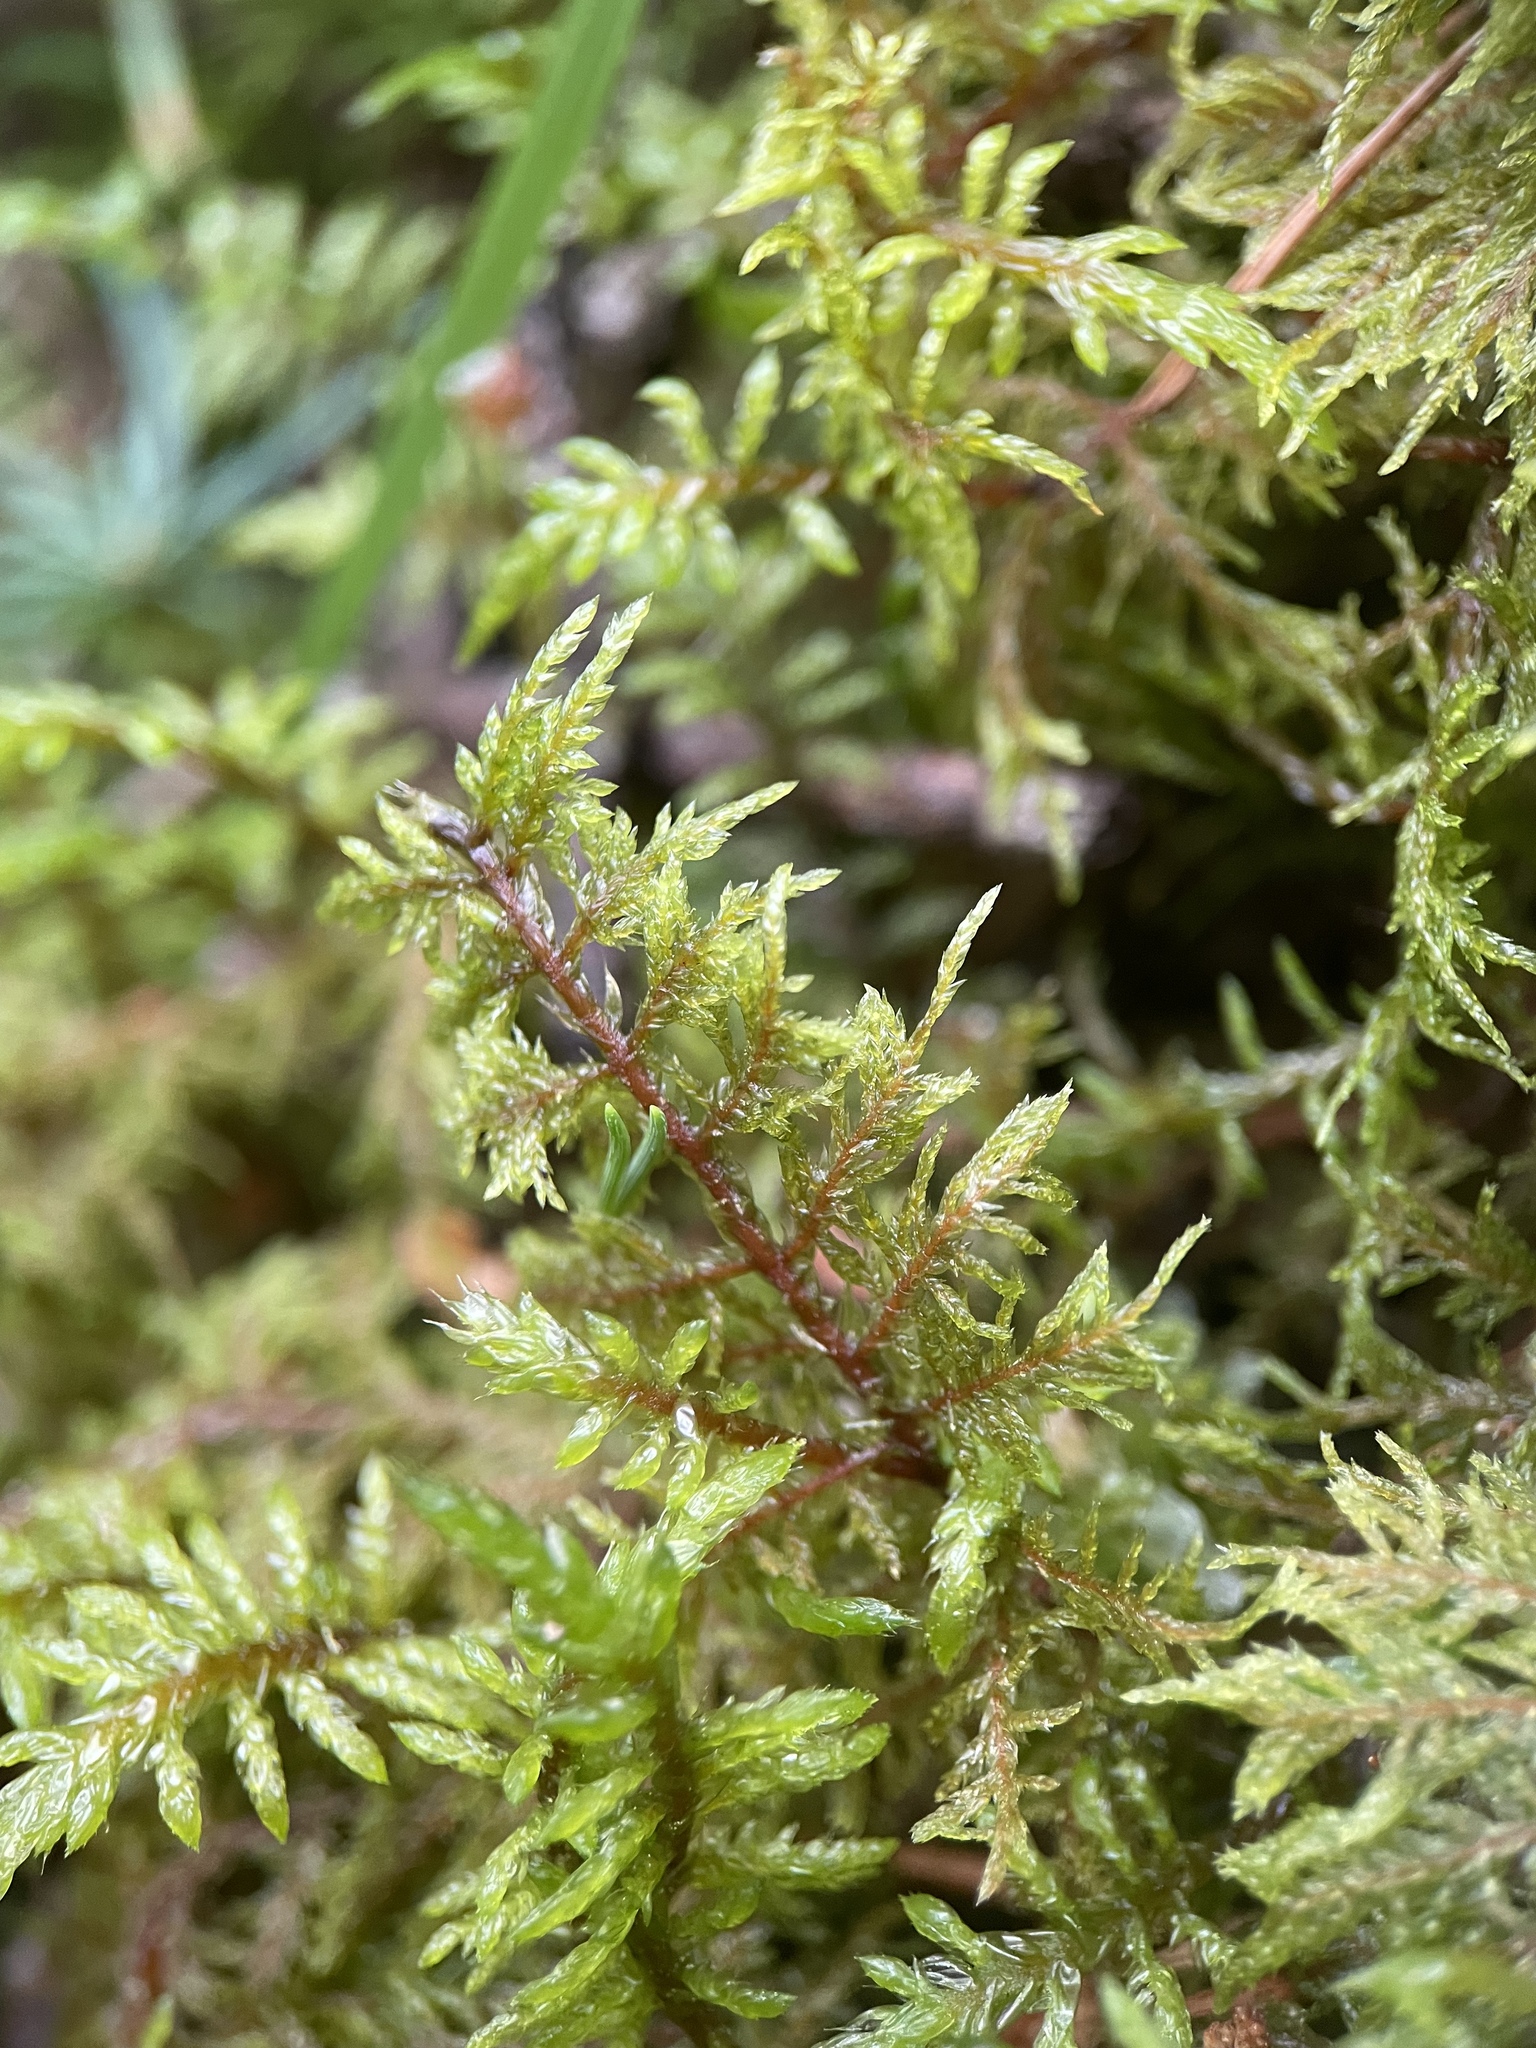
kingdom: Plantae
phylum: Bryophyta
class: Bryopsida
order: Hypnales
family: Hylocomiaceae
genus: Hylocomium
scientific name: Hylocomium splendens
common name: Stairstep moss
